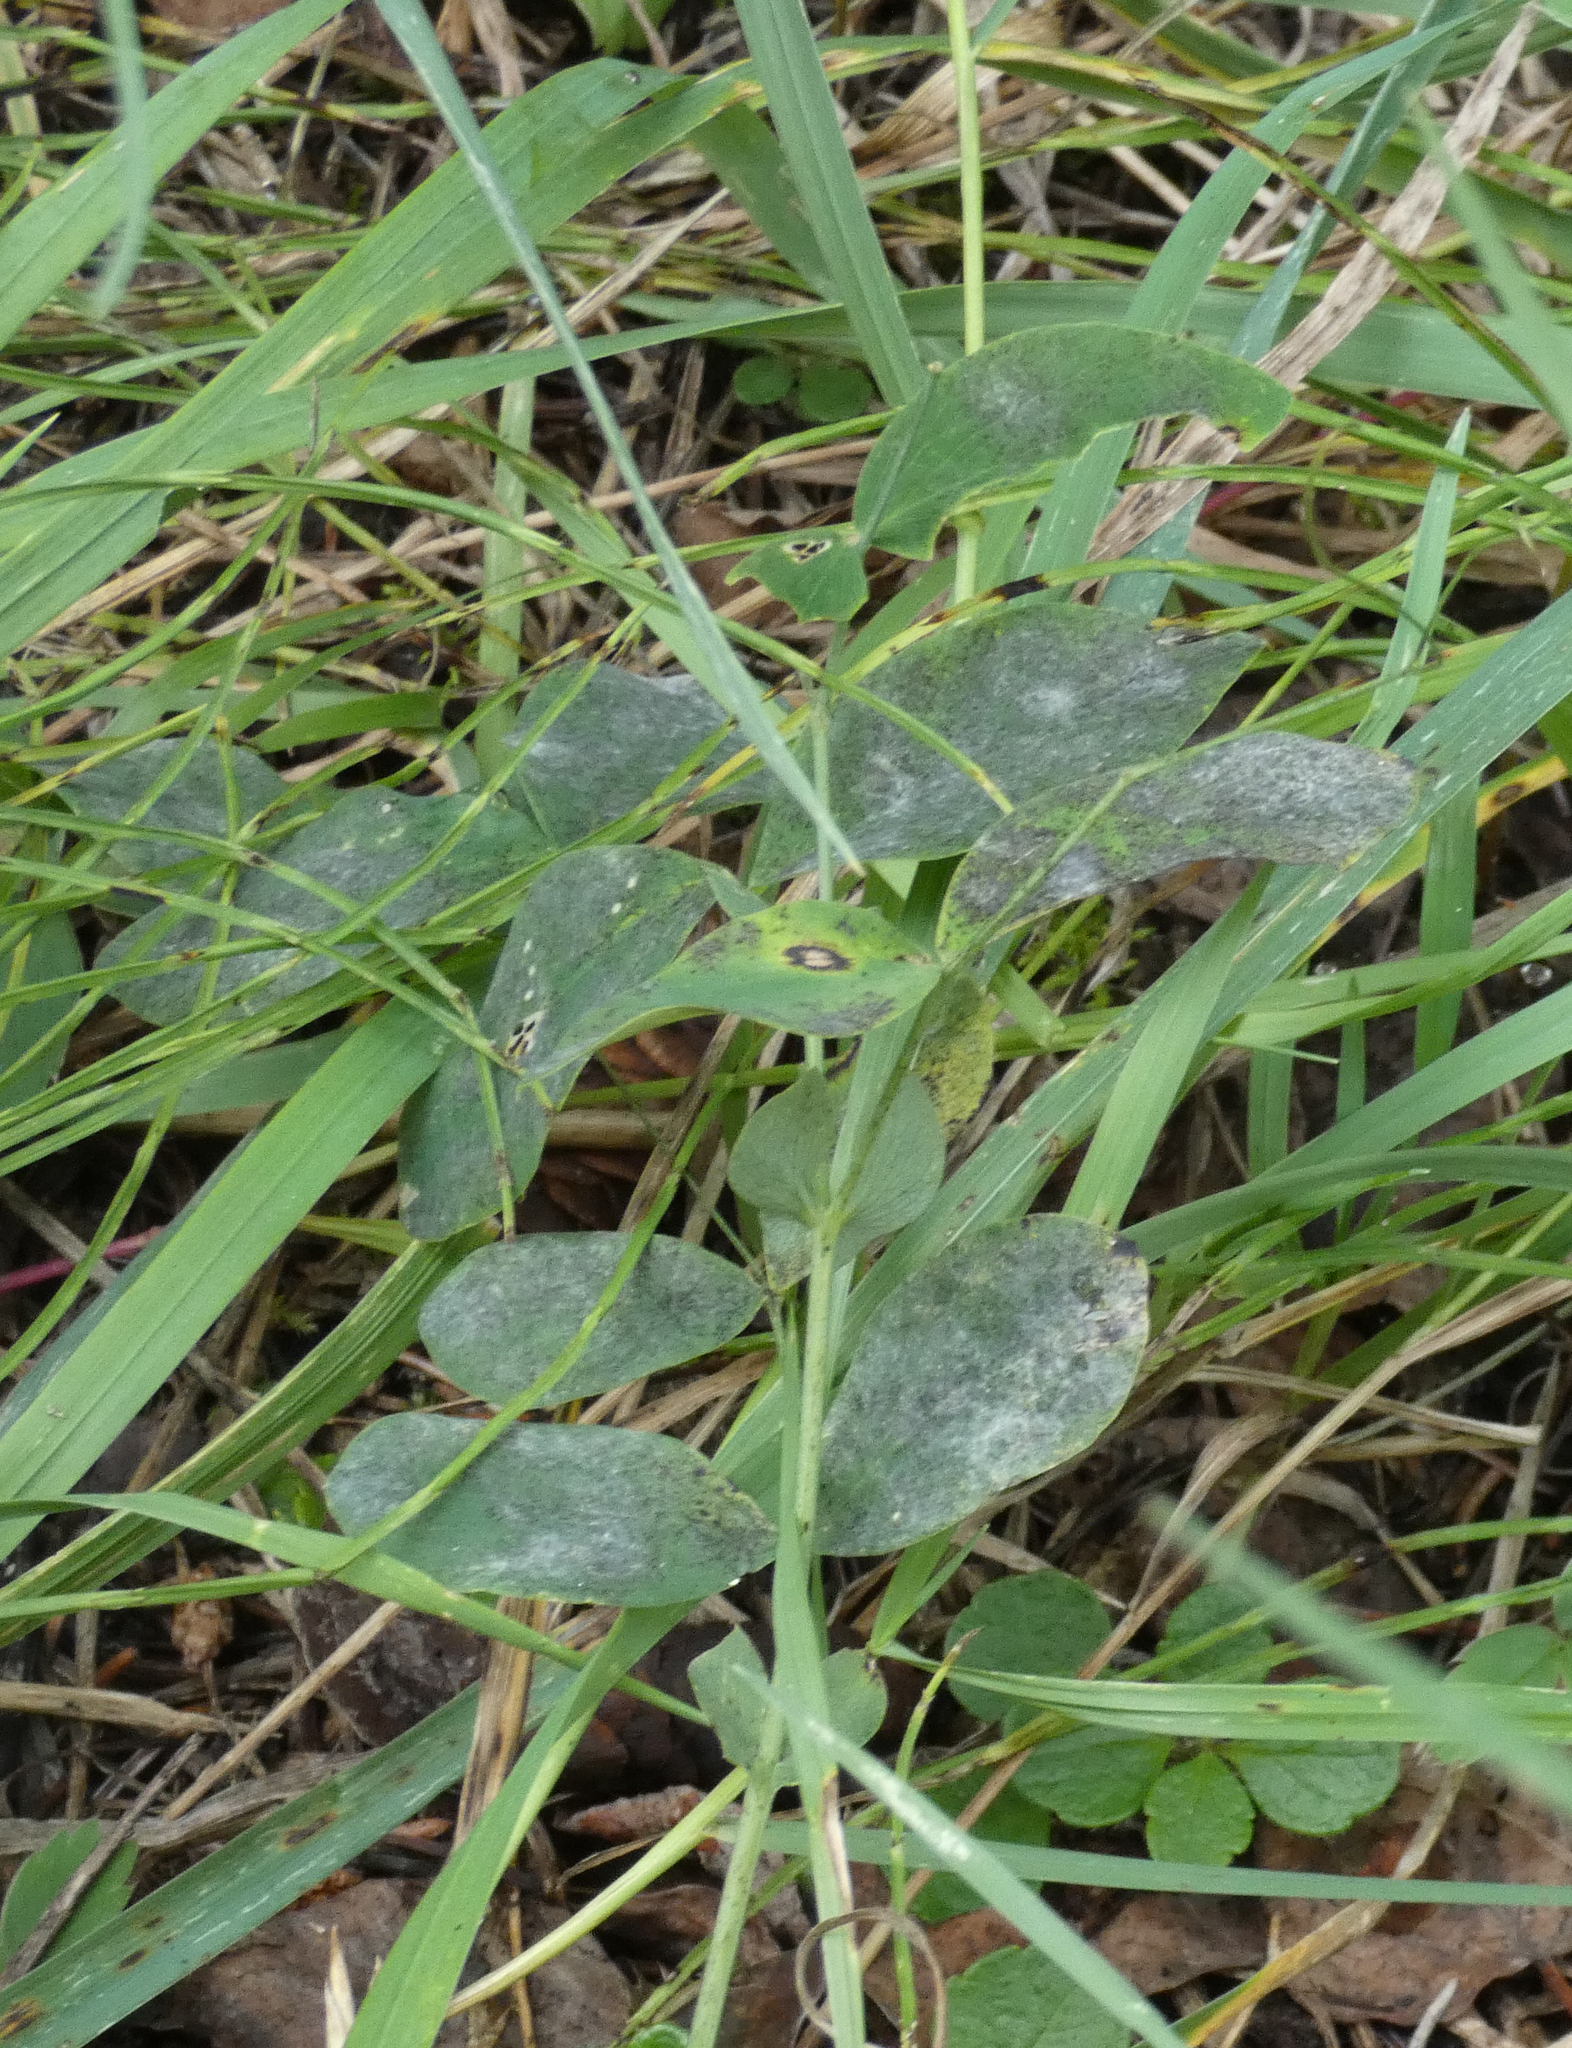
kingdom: Plantae
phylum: Tracheophyta
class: Magnoliopsida
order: Fabales
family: Fabaceae
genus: Lathyrus
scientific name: Lathyrus ochroleucus
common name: Pale vetchling
